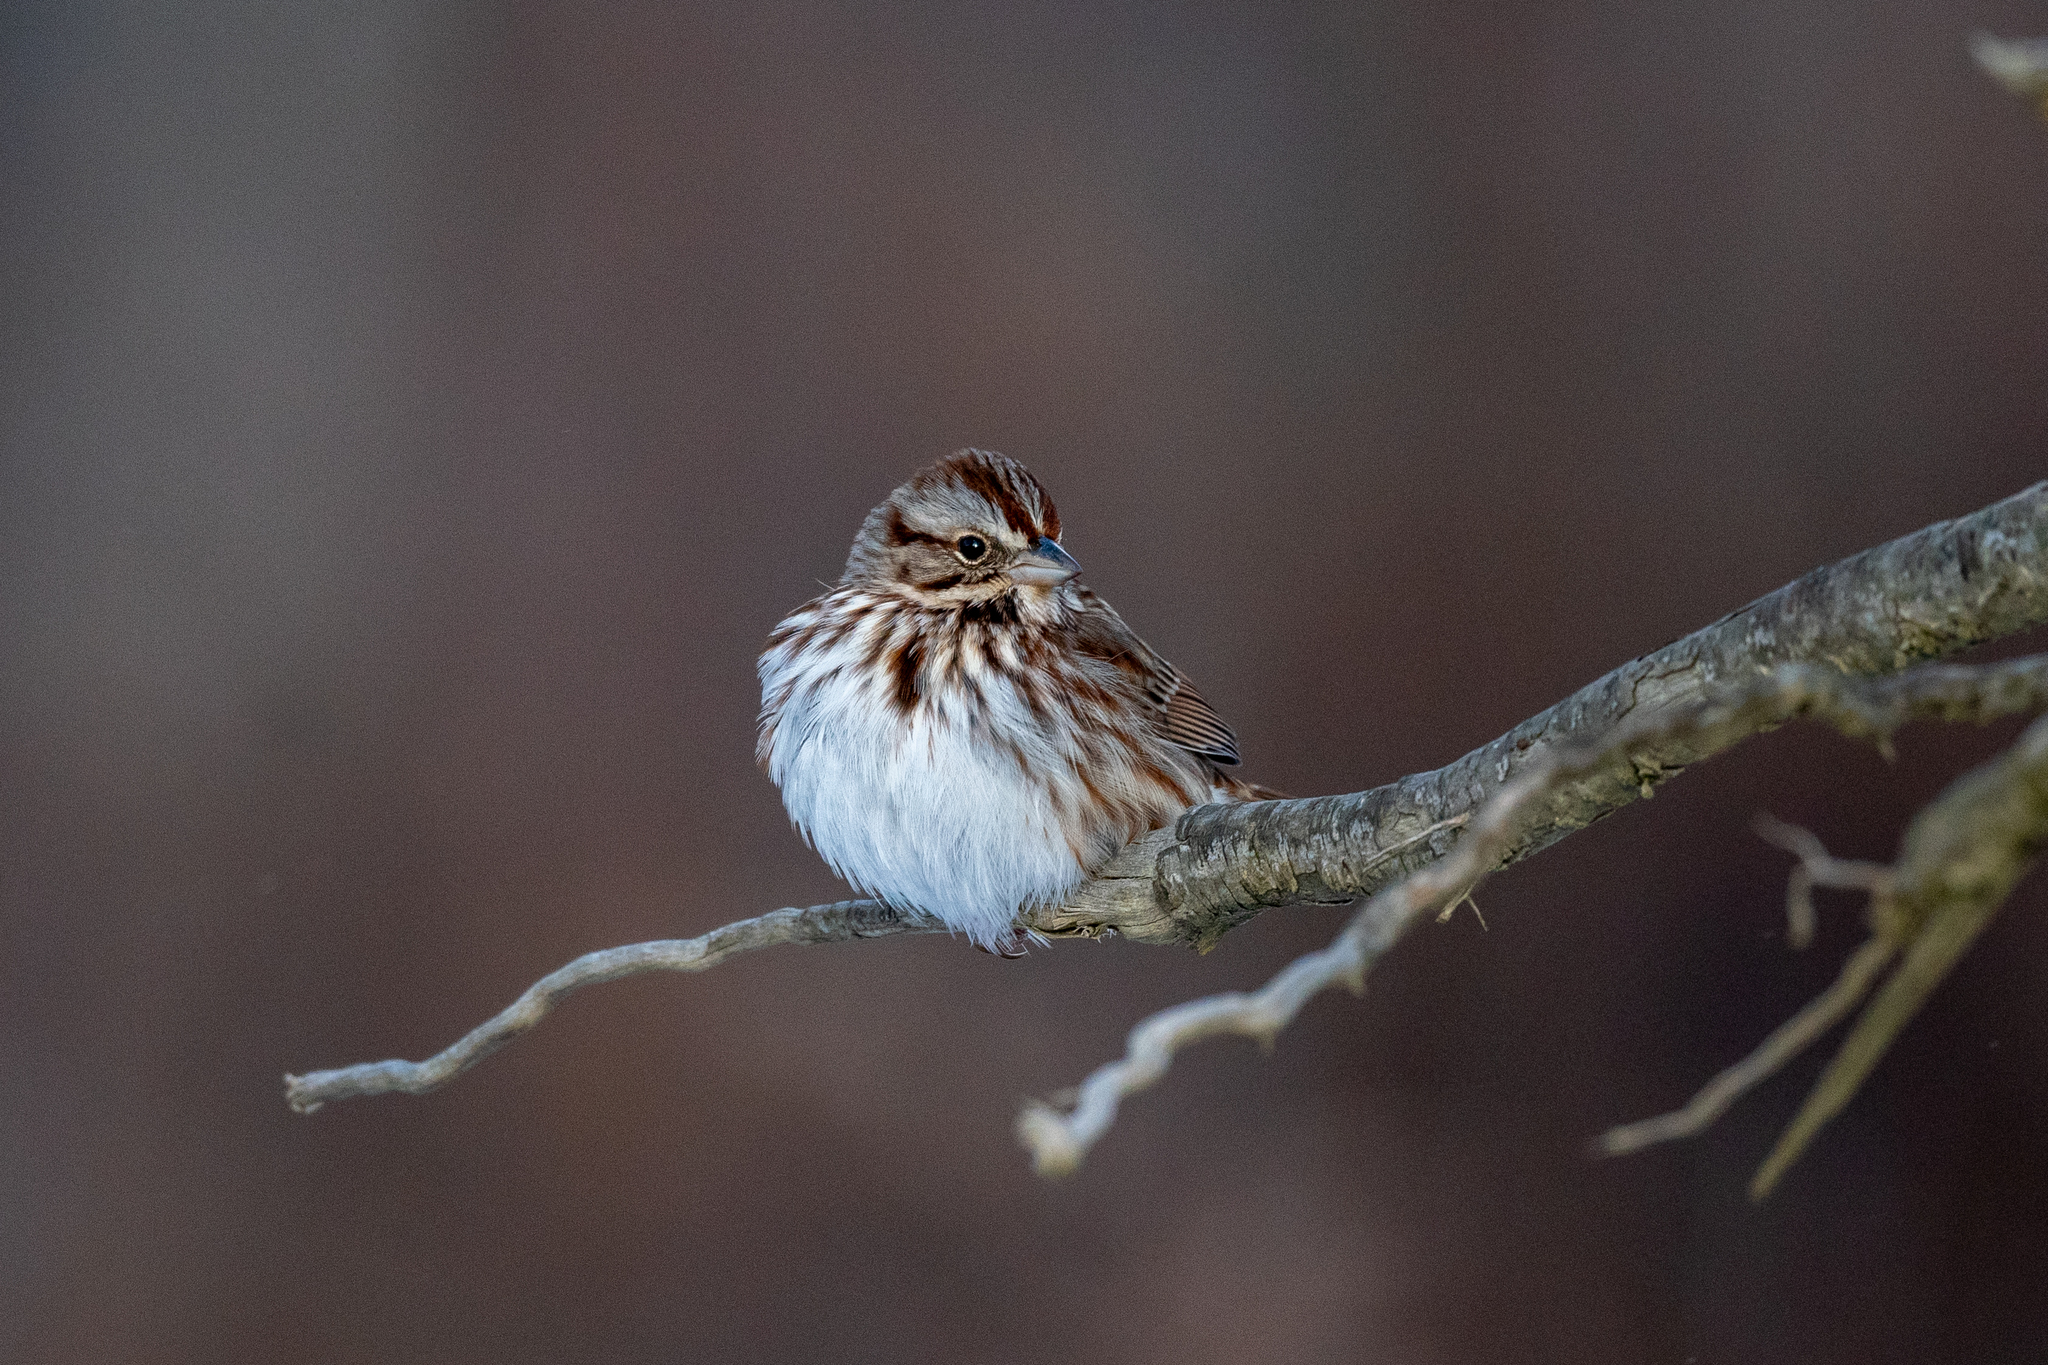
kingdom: Animalia
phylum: Chordata
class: Aves
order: Passeriformes
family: Passerellidae
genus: Melospiza
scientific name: Melospiza melodia
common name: Song sparrow
